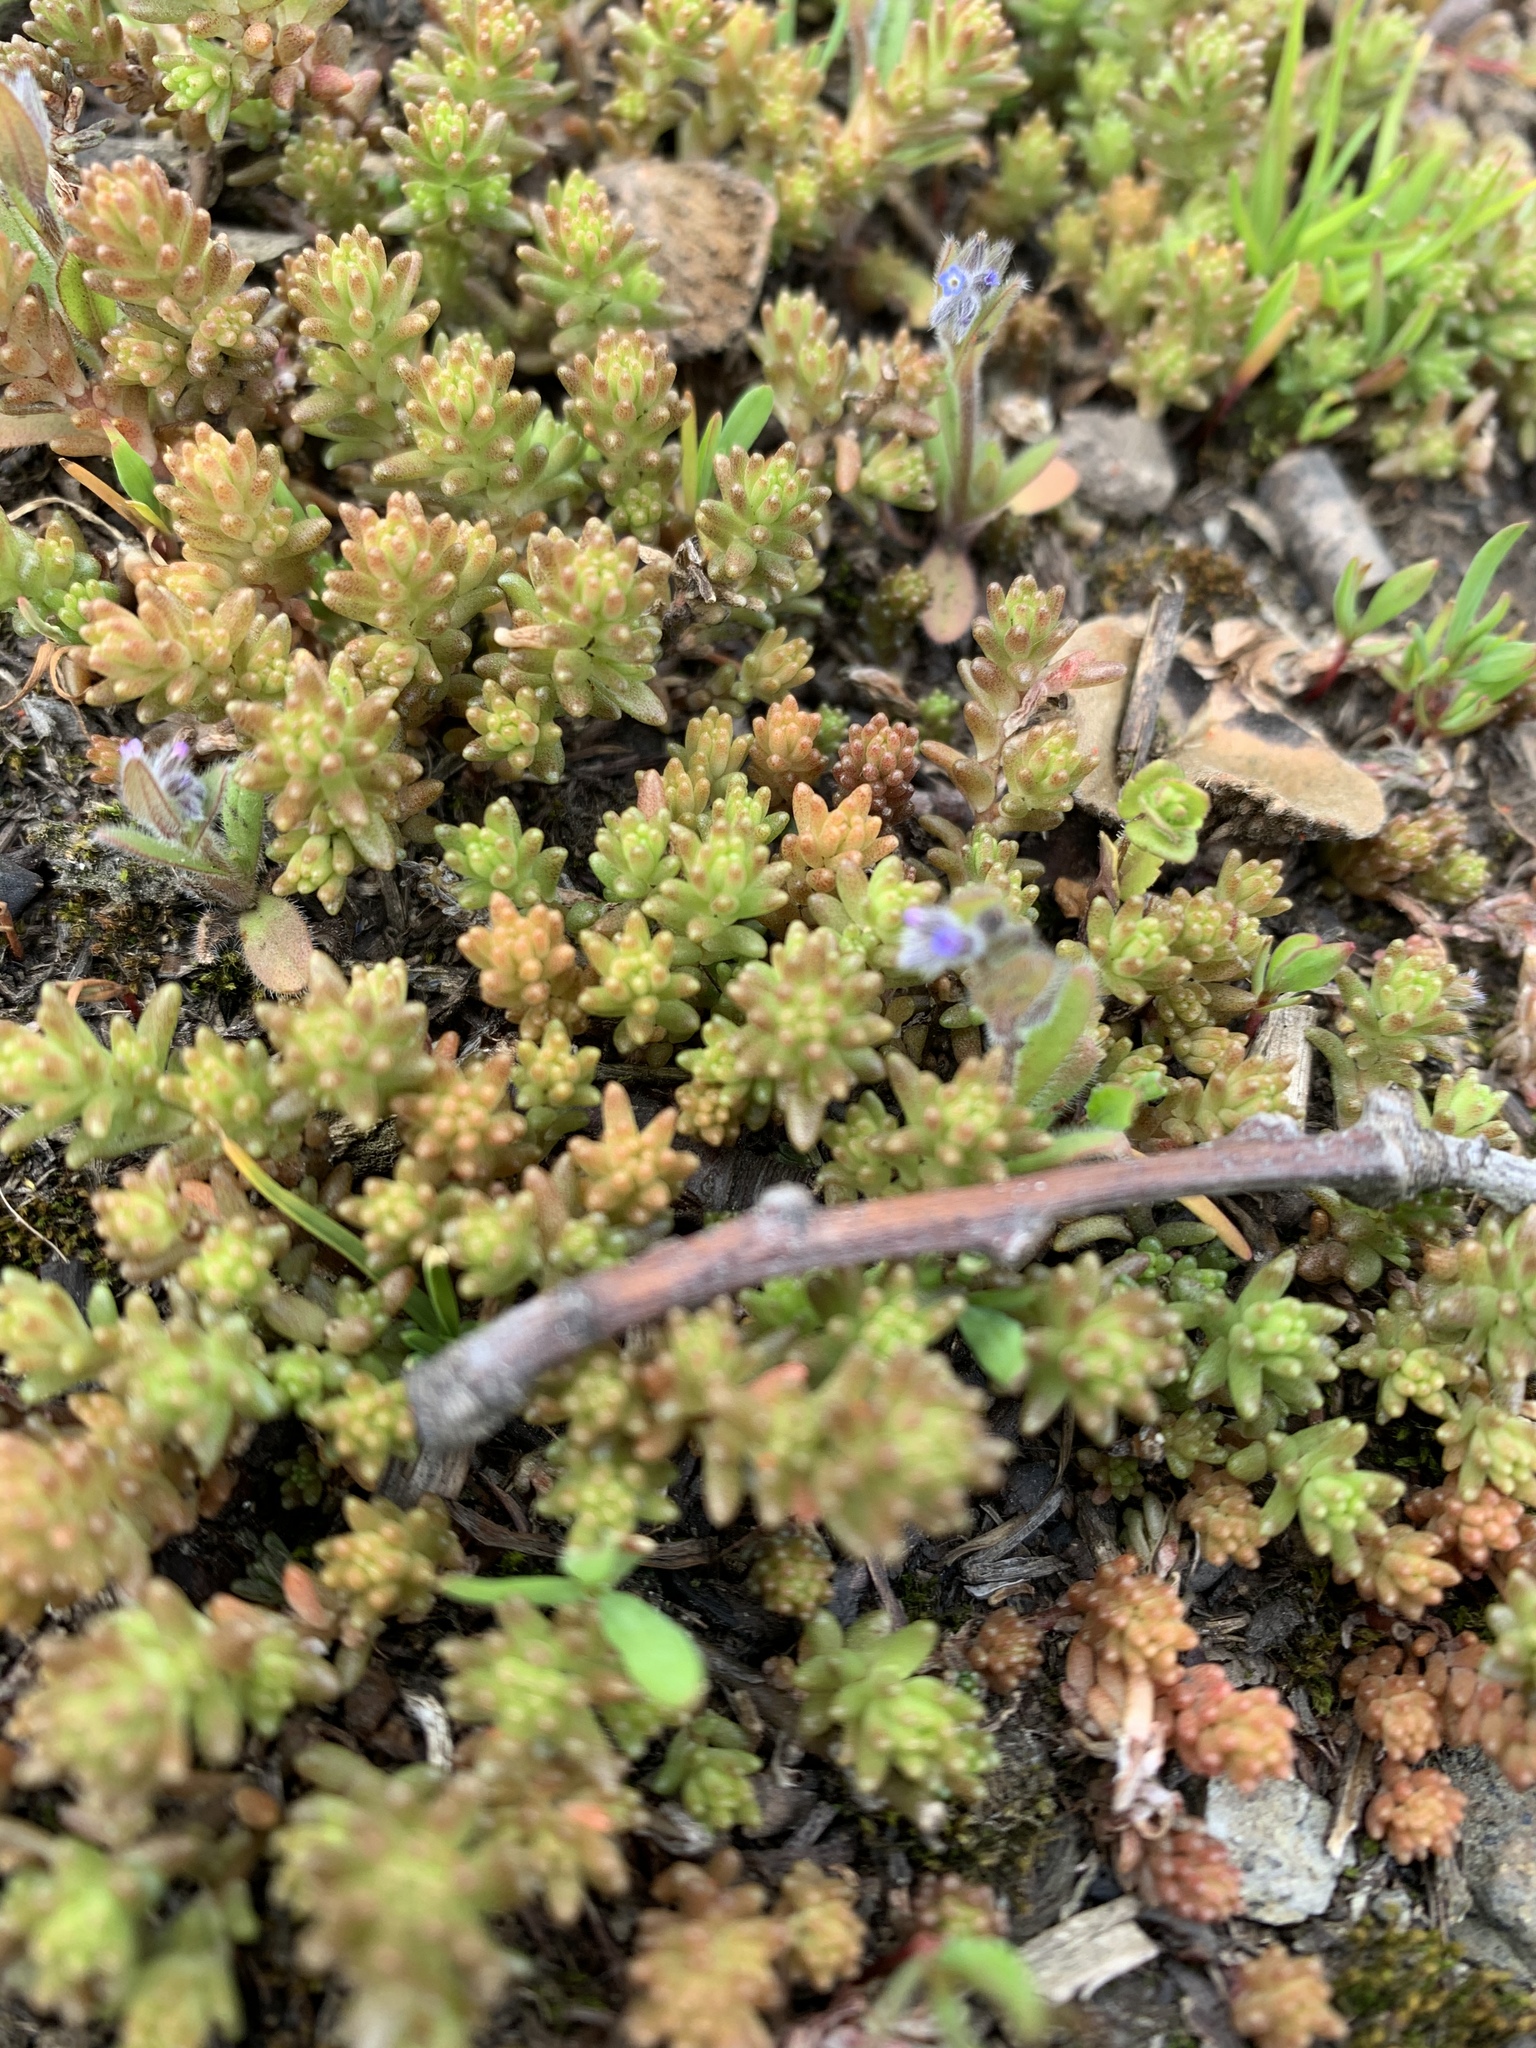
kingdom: Plantae
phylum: Tracheophyta
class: Magnoliopsida
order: Saxifragales
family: Crassulaceae
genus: Sedum
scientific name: Sedum sexangulare
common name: Tasteless stonecrop
